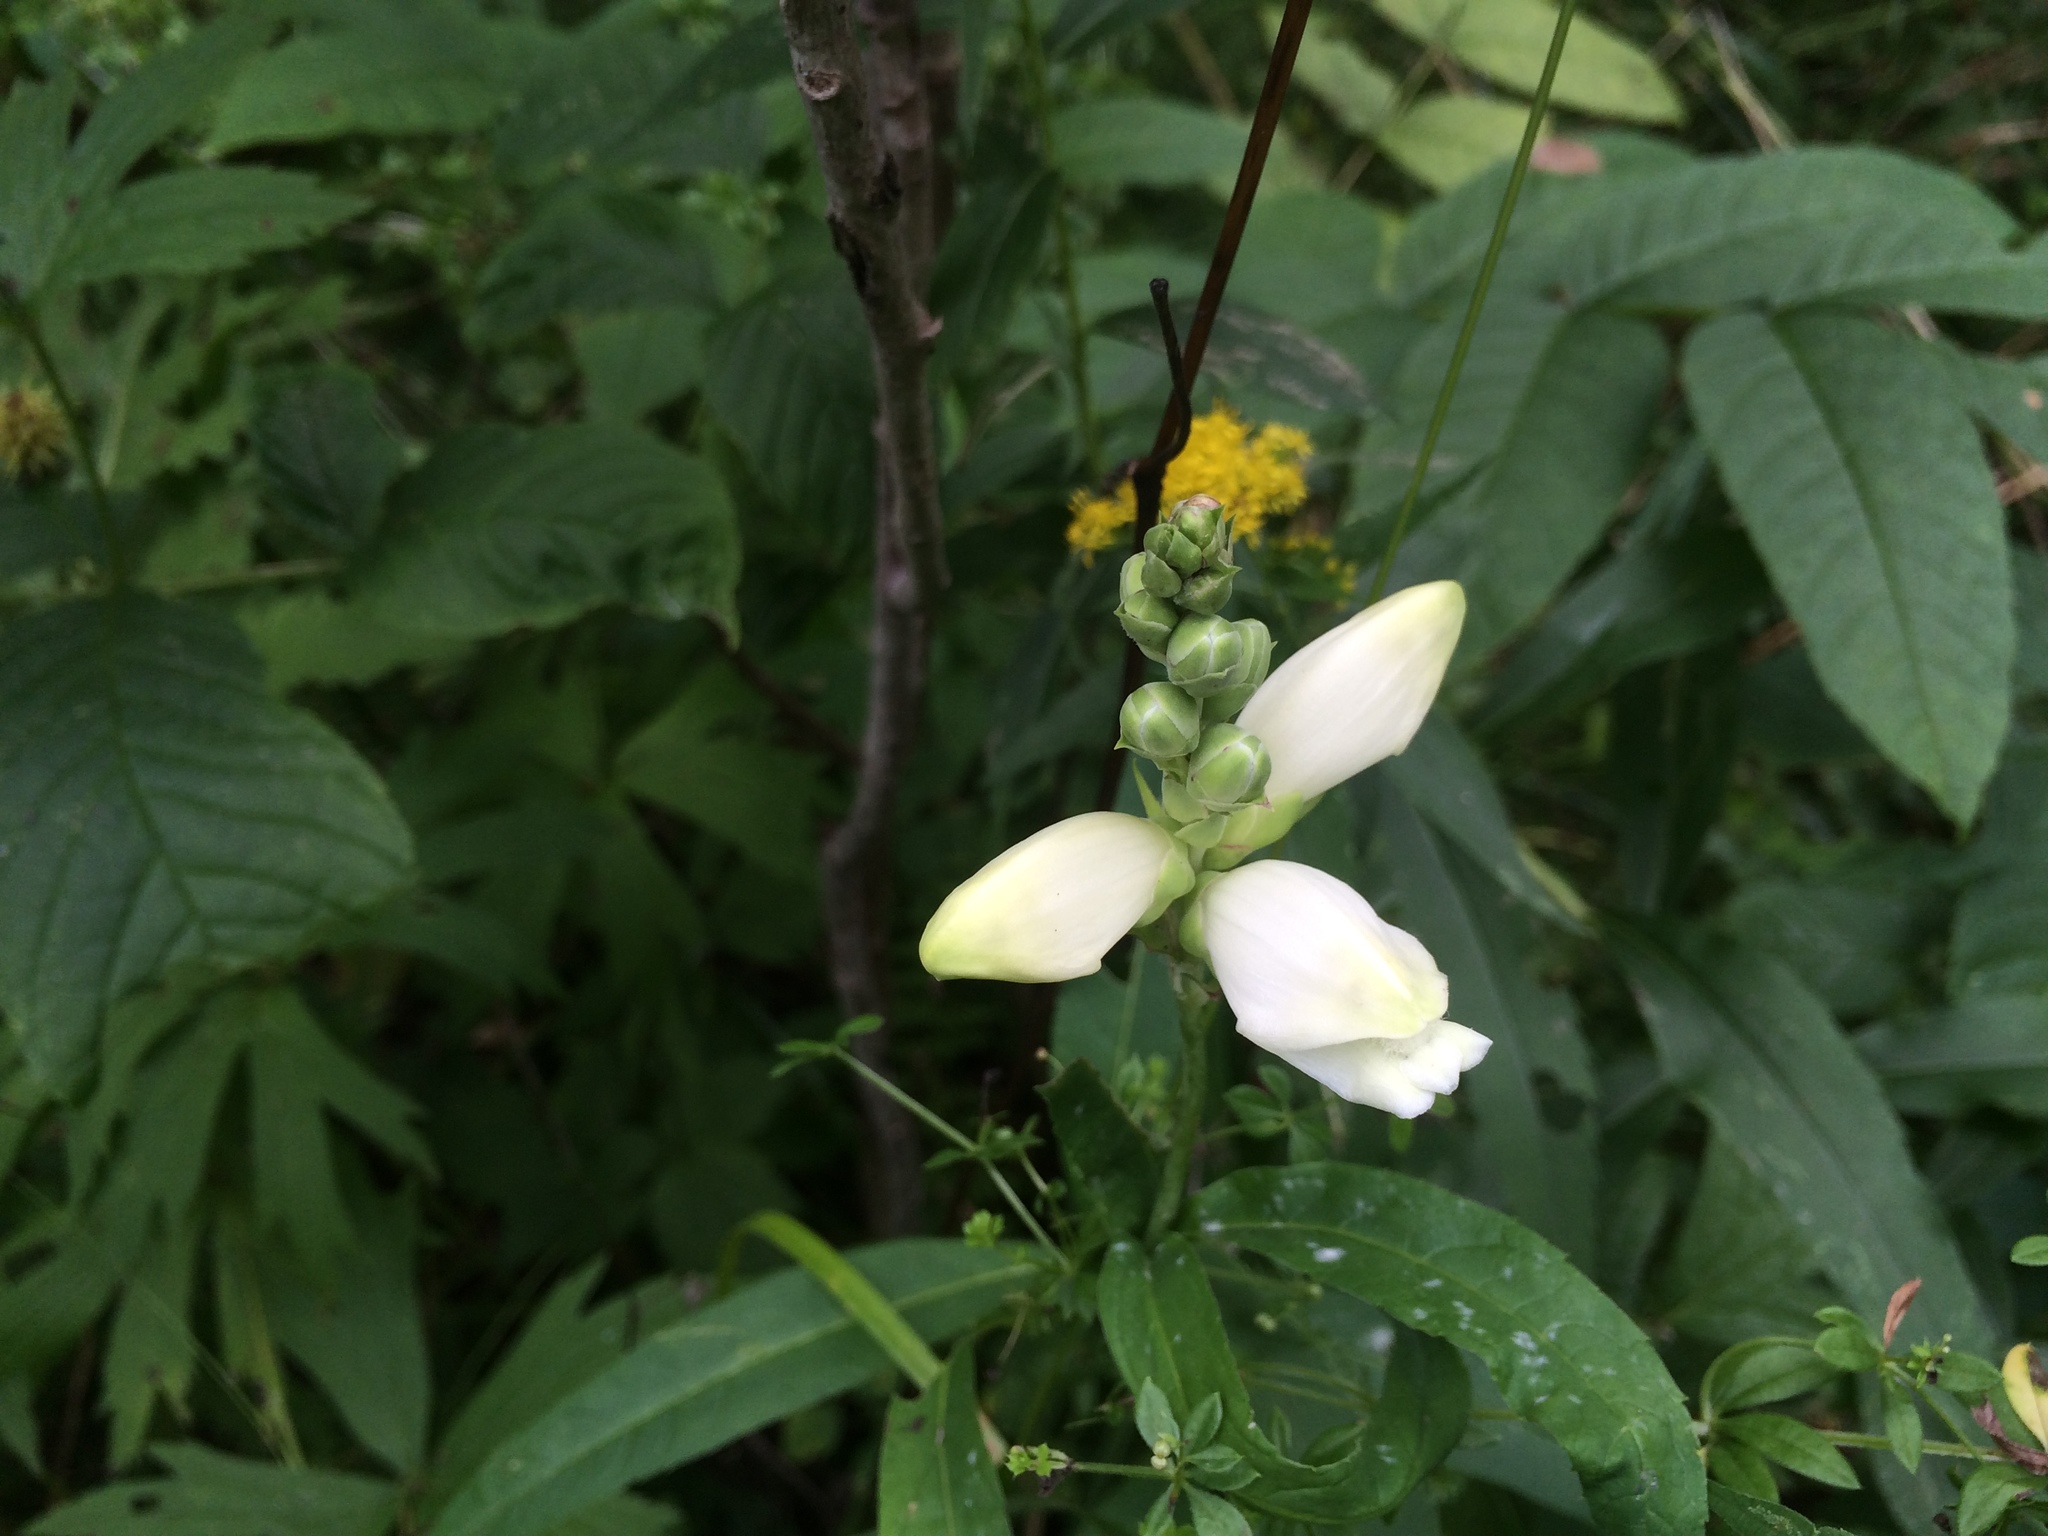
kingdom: Plantae
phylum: Tracheophyta
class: Magnoliopsida
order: Lamiales
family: Plantaginaceae
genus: Chelone
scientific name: Chelone glabra
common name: Snakehead
